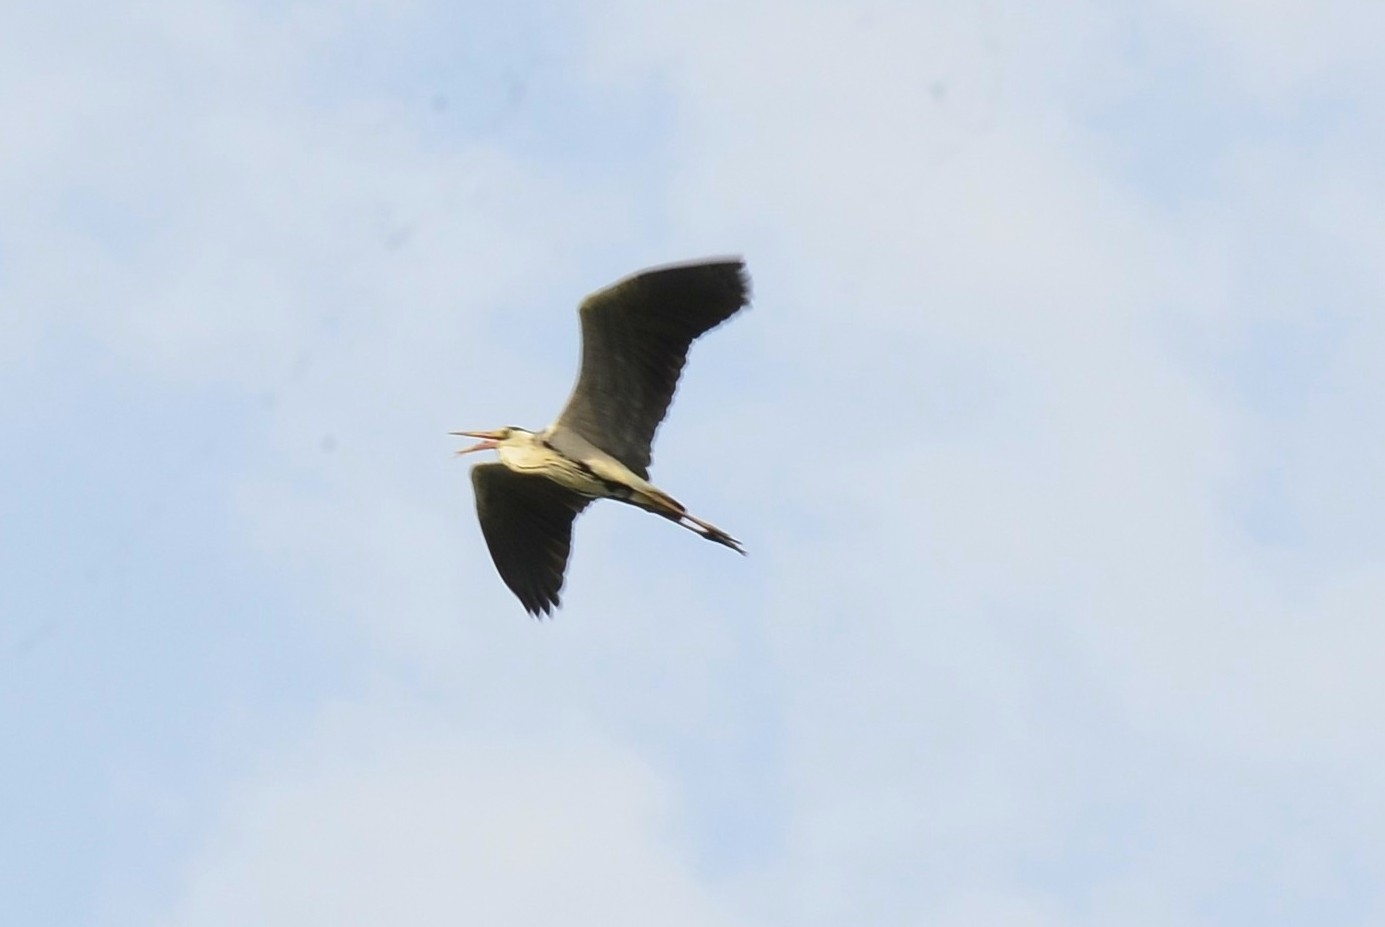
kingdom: Animalia
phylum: Chordata
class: Aves
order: Pelecaniformes
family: Ardeidae
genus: Ardea
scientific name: Ardea cinerea
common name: Grey heron
